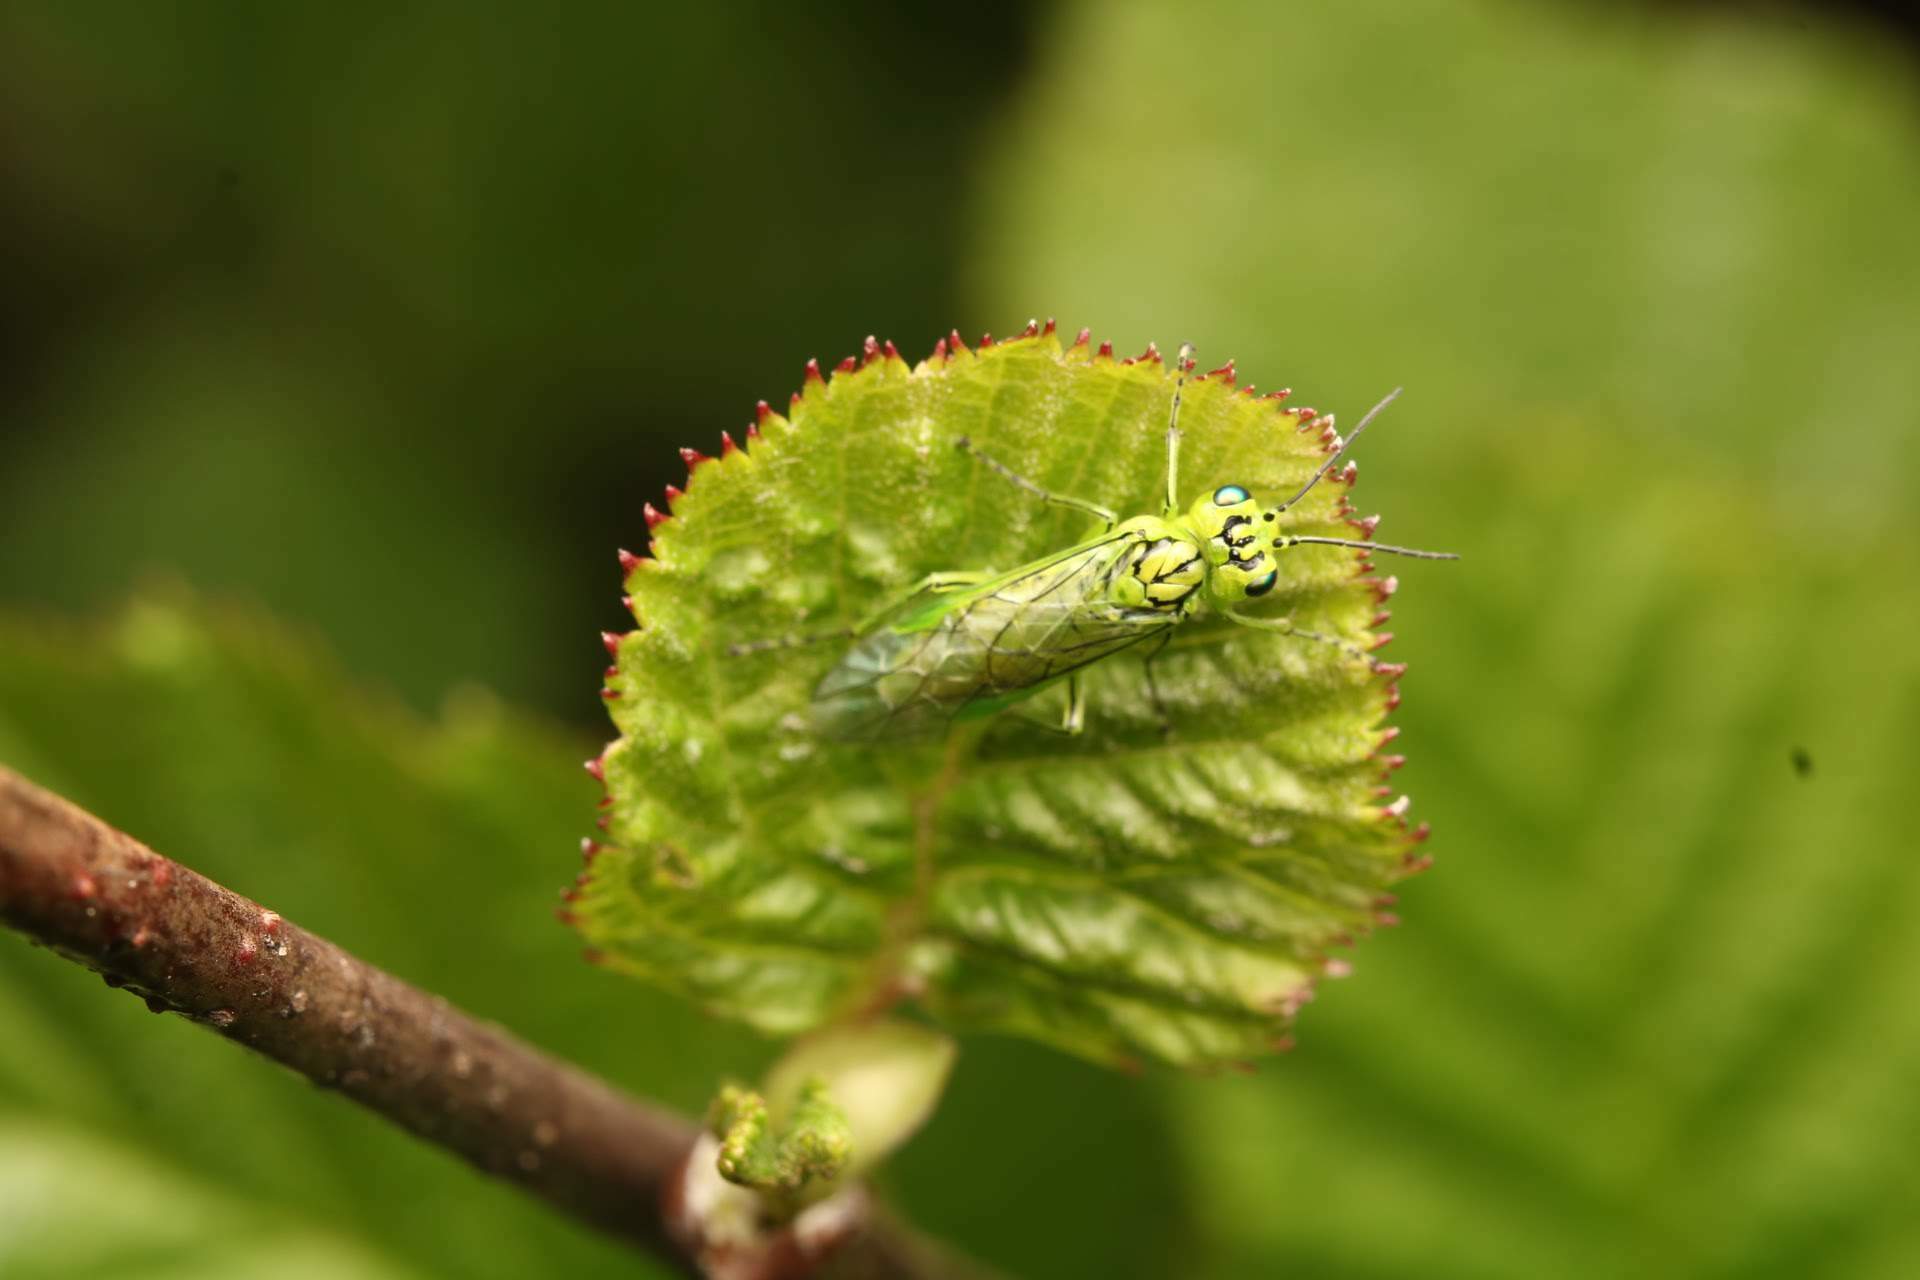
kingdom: Animalia
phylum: Arthropoda
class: Insecta
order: Hymenoptera
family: Tenthredinidae
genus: Rhogogaster
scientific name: Rhogogaster punctulata
